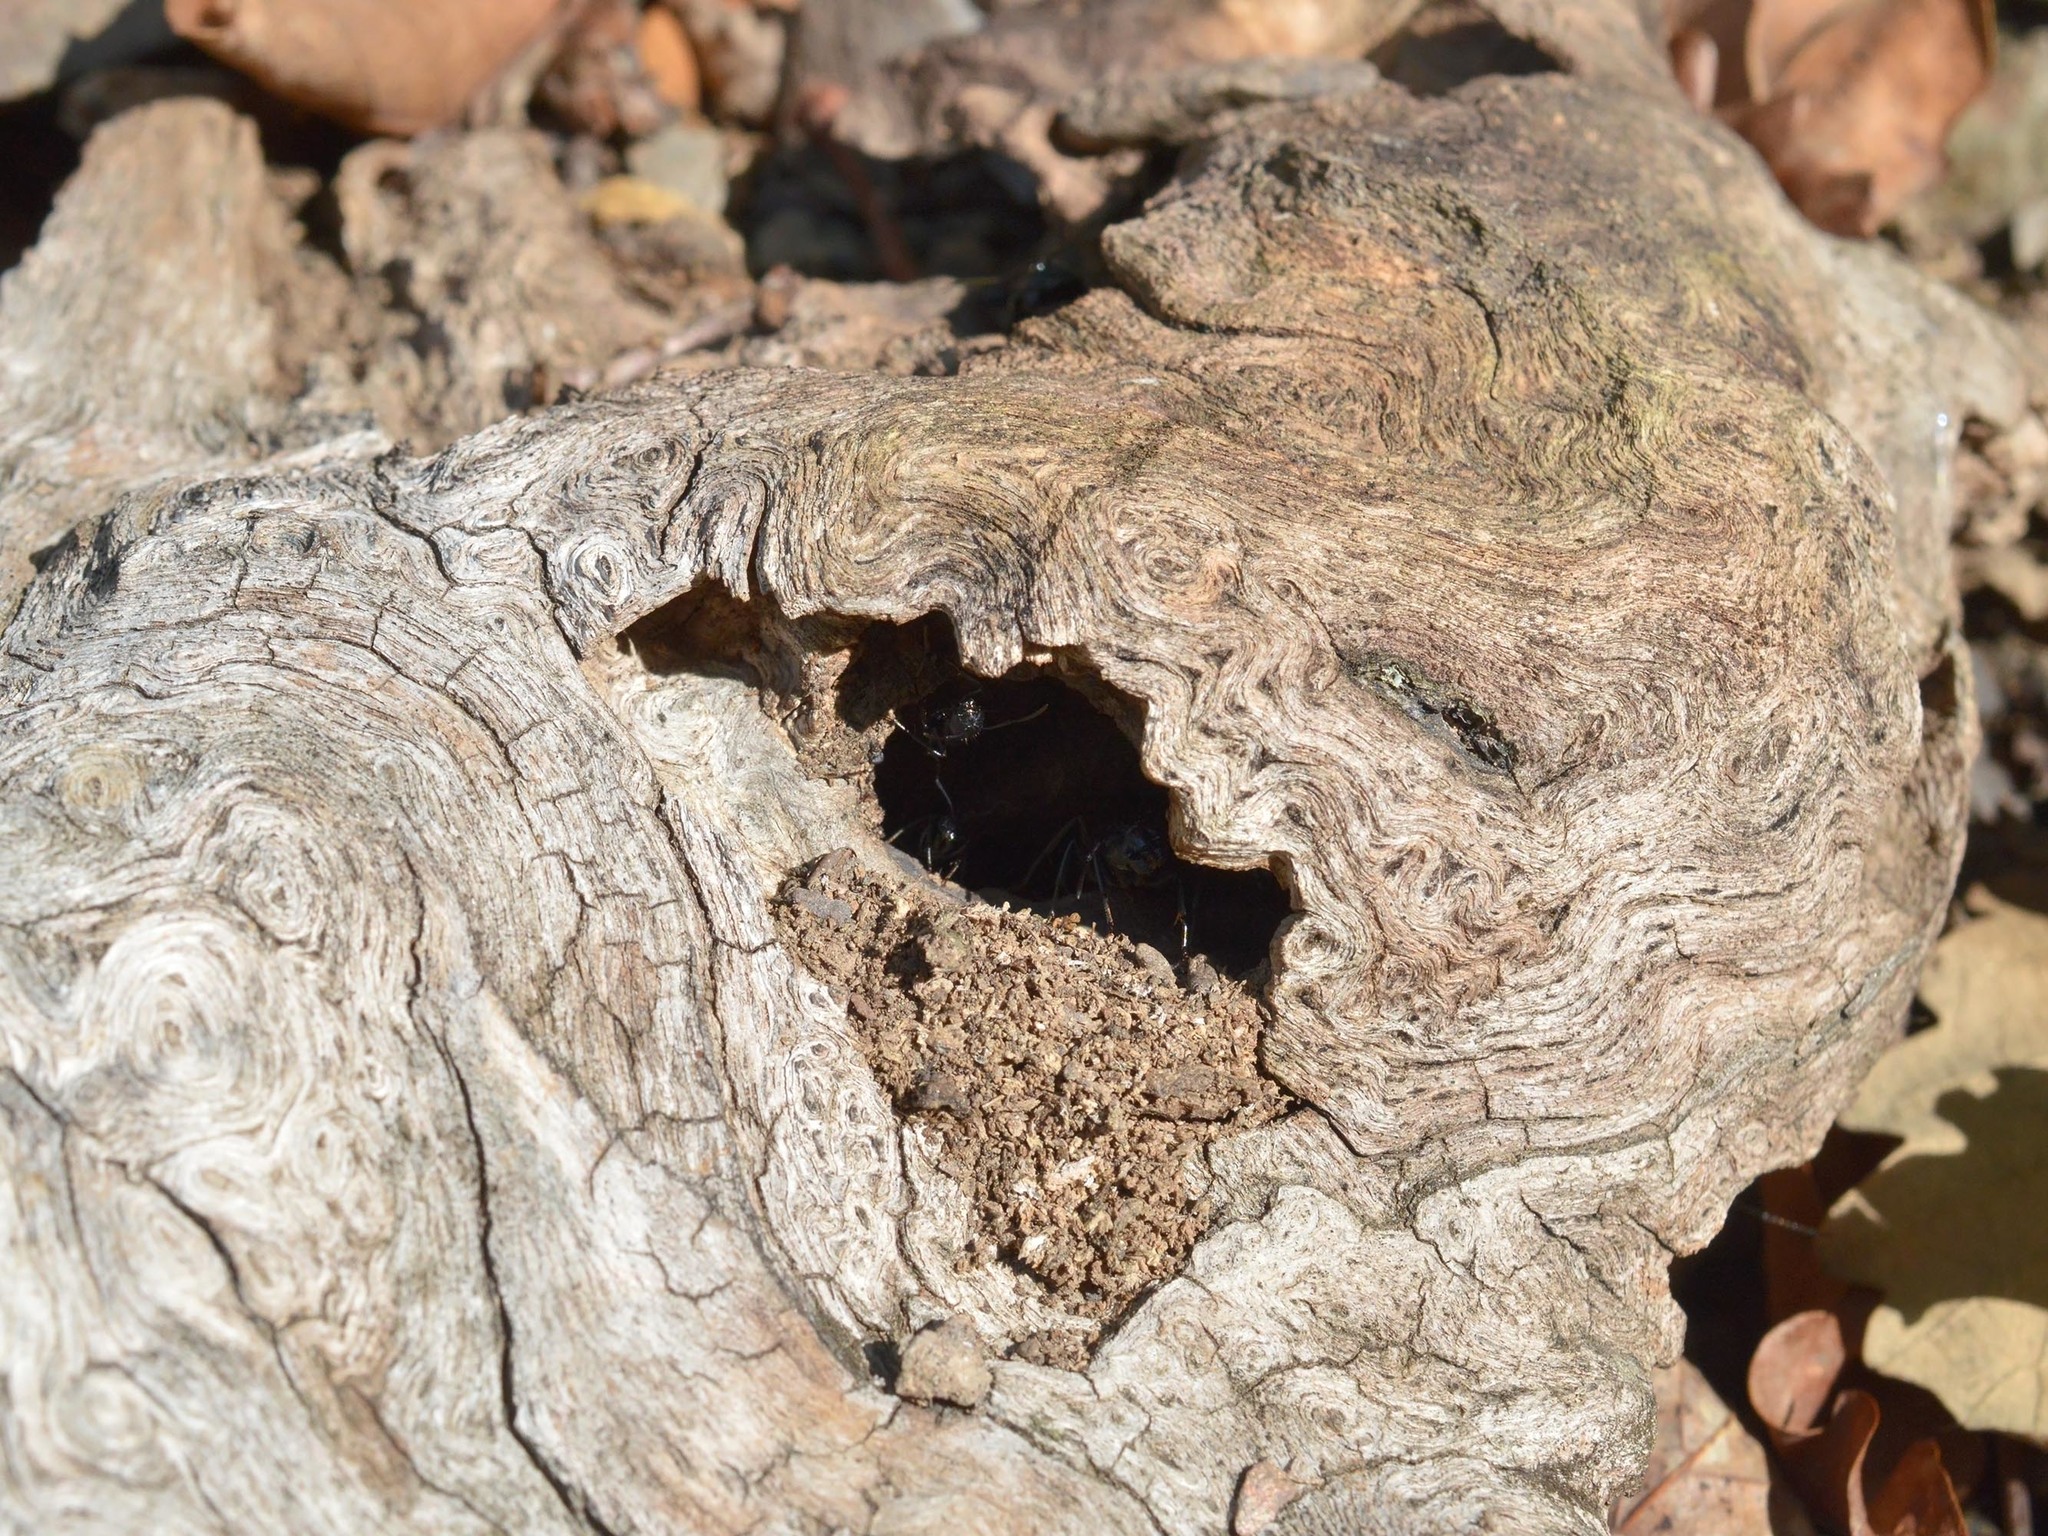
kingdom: Animalia
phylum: Arthropoda
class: Insecta
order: Hymenoptera
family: Formicidae
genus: Camponotus
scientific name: Camponotus vagus
